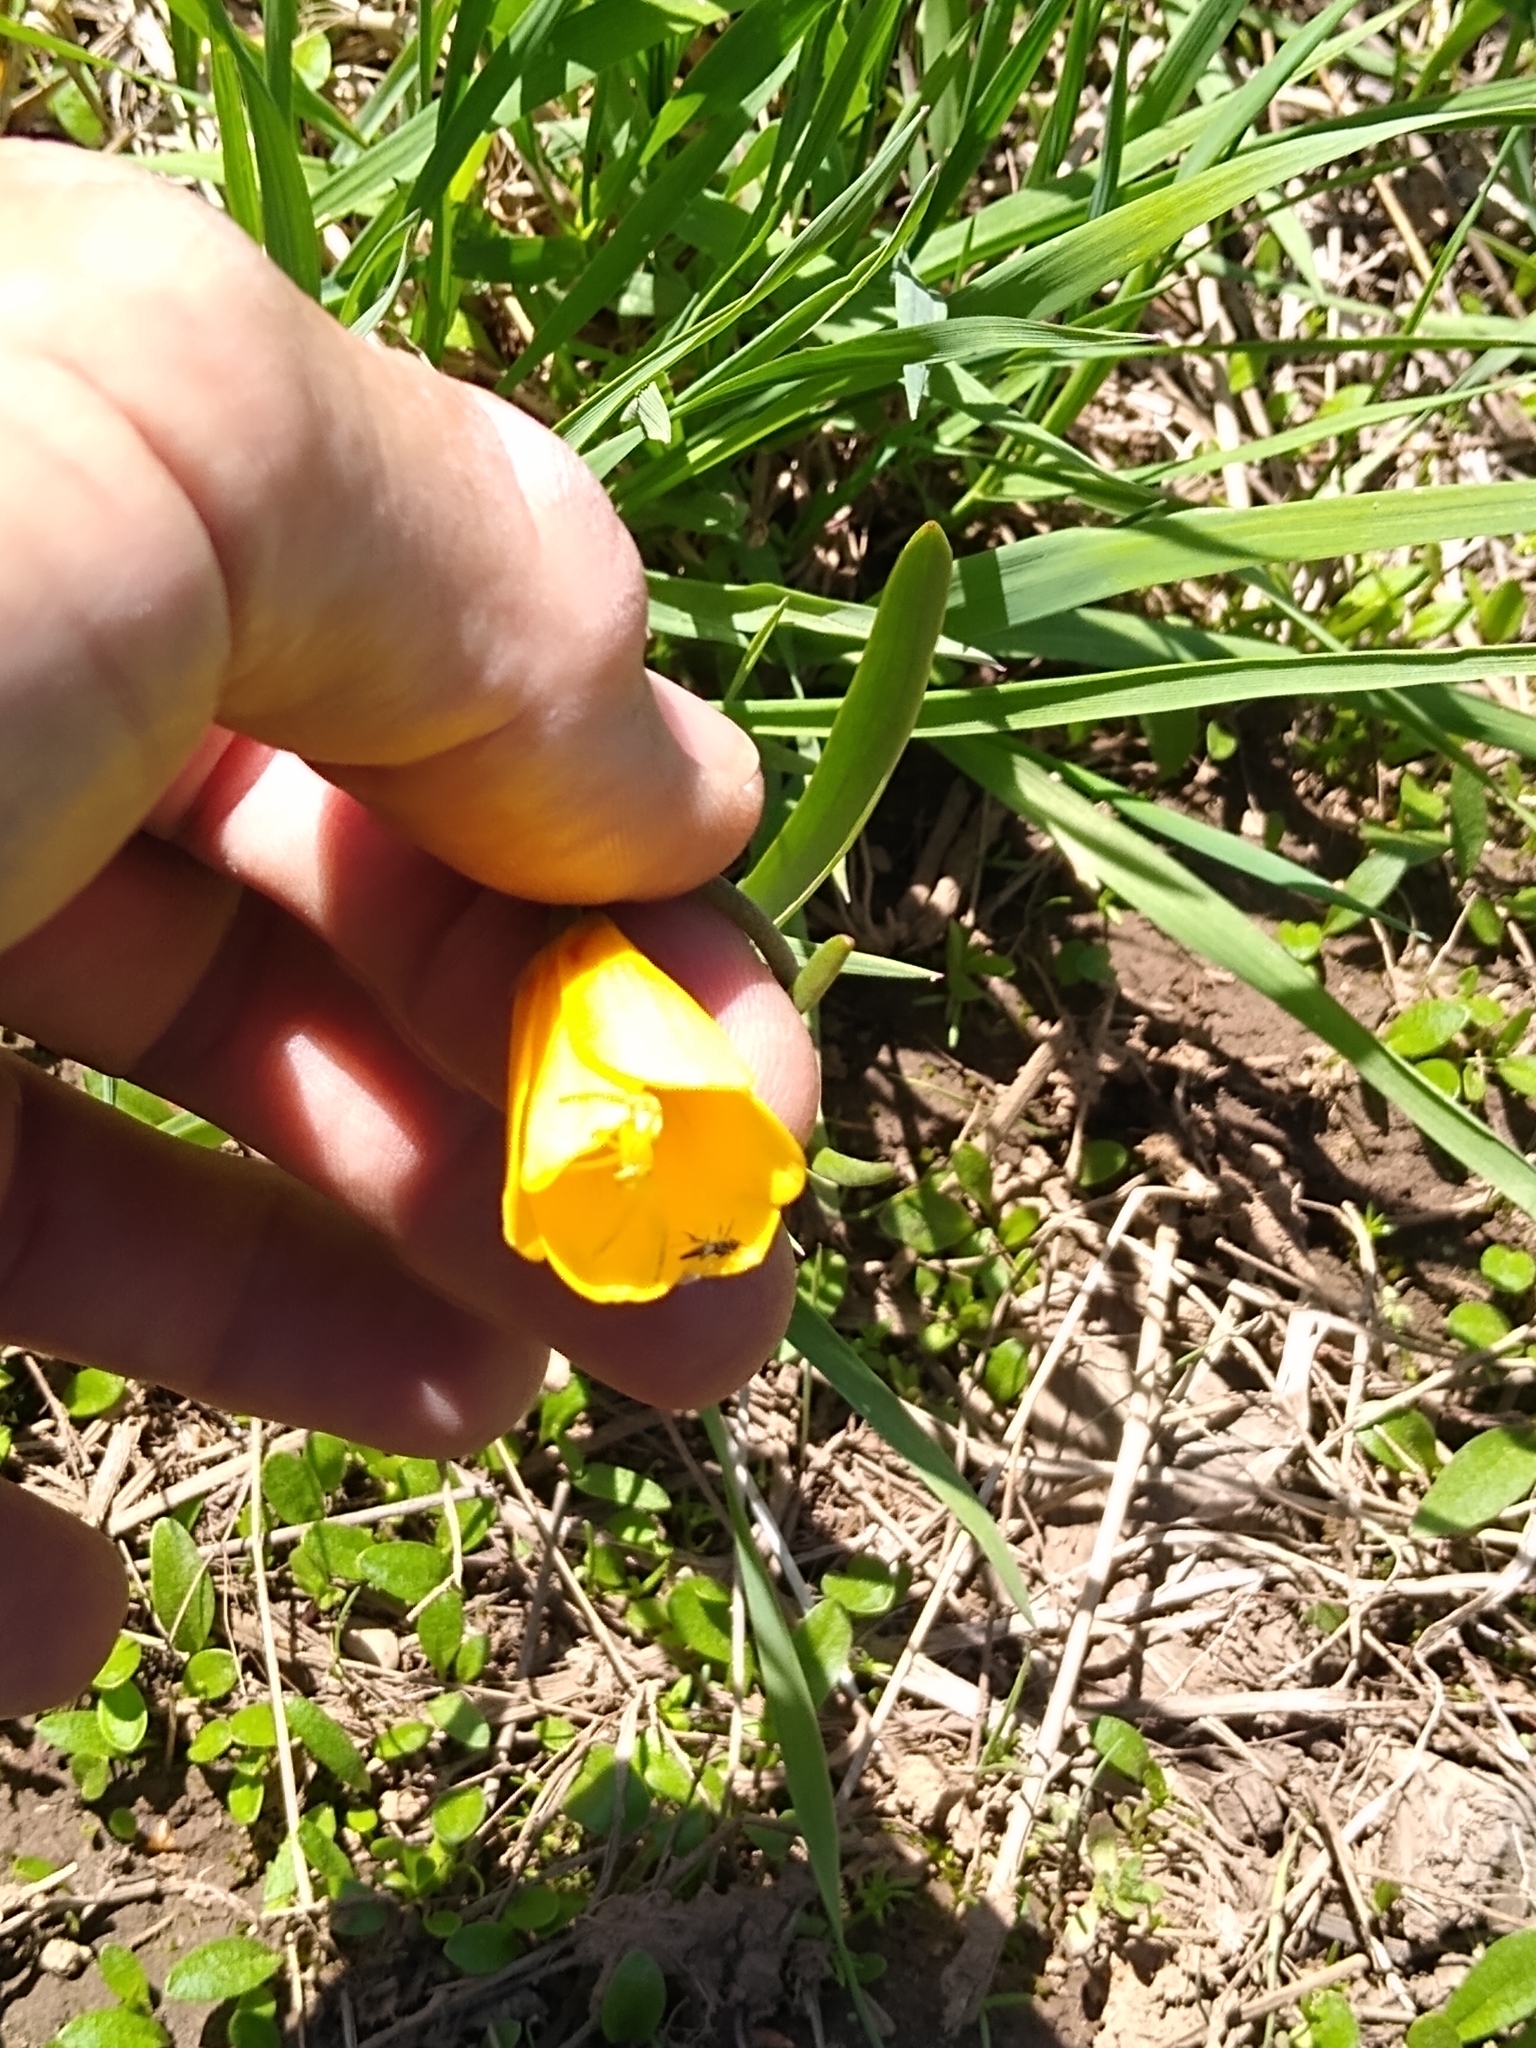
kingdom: Plantae
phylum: Tracheophyta
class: Liliopsida
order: Liliales
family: Liliaceae
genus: Fritillaria
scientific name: Fritillaria pudica
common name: Yellow fritillary
